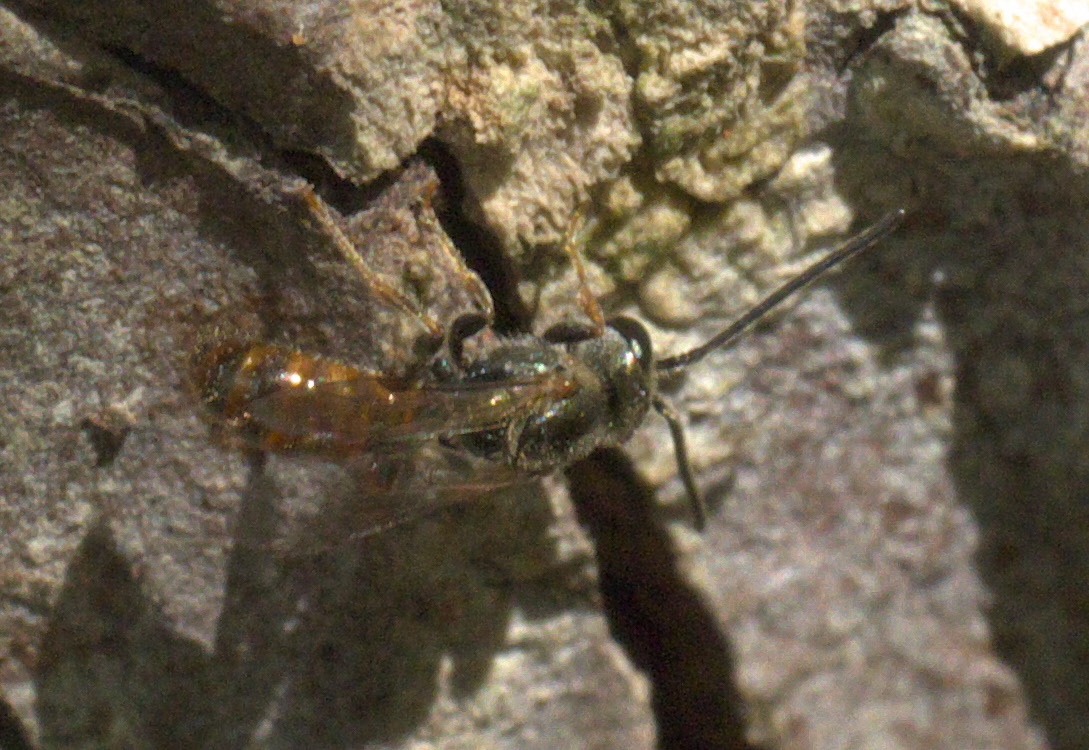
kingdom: Animalia
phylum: Arthropoda
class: Insecta
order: Hymenoptera
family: Halictidae
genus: Lasioglossum
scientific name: Lasioglossum zephyrum
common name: Zephyr sweat bee
